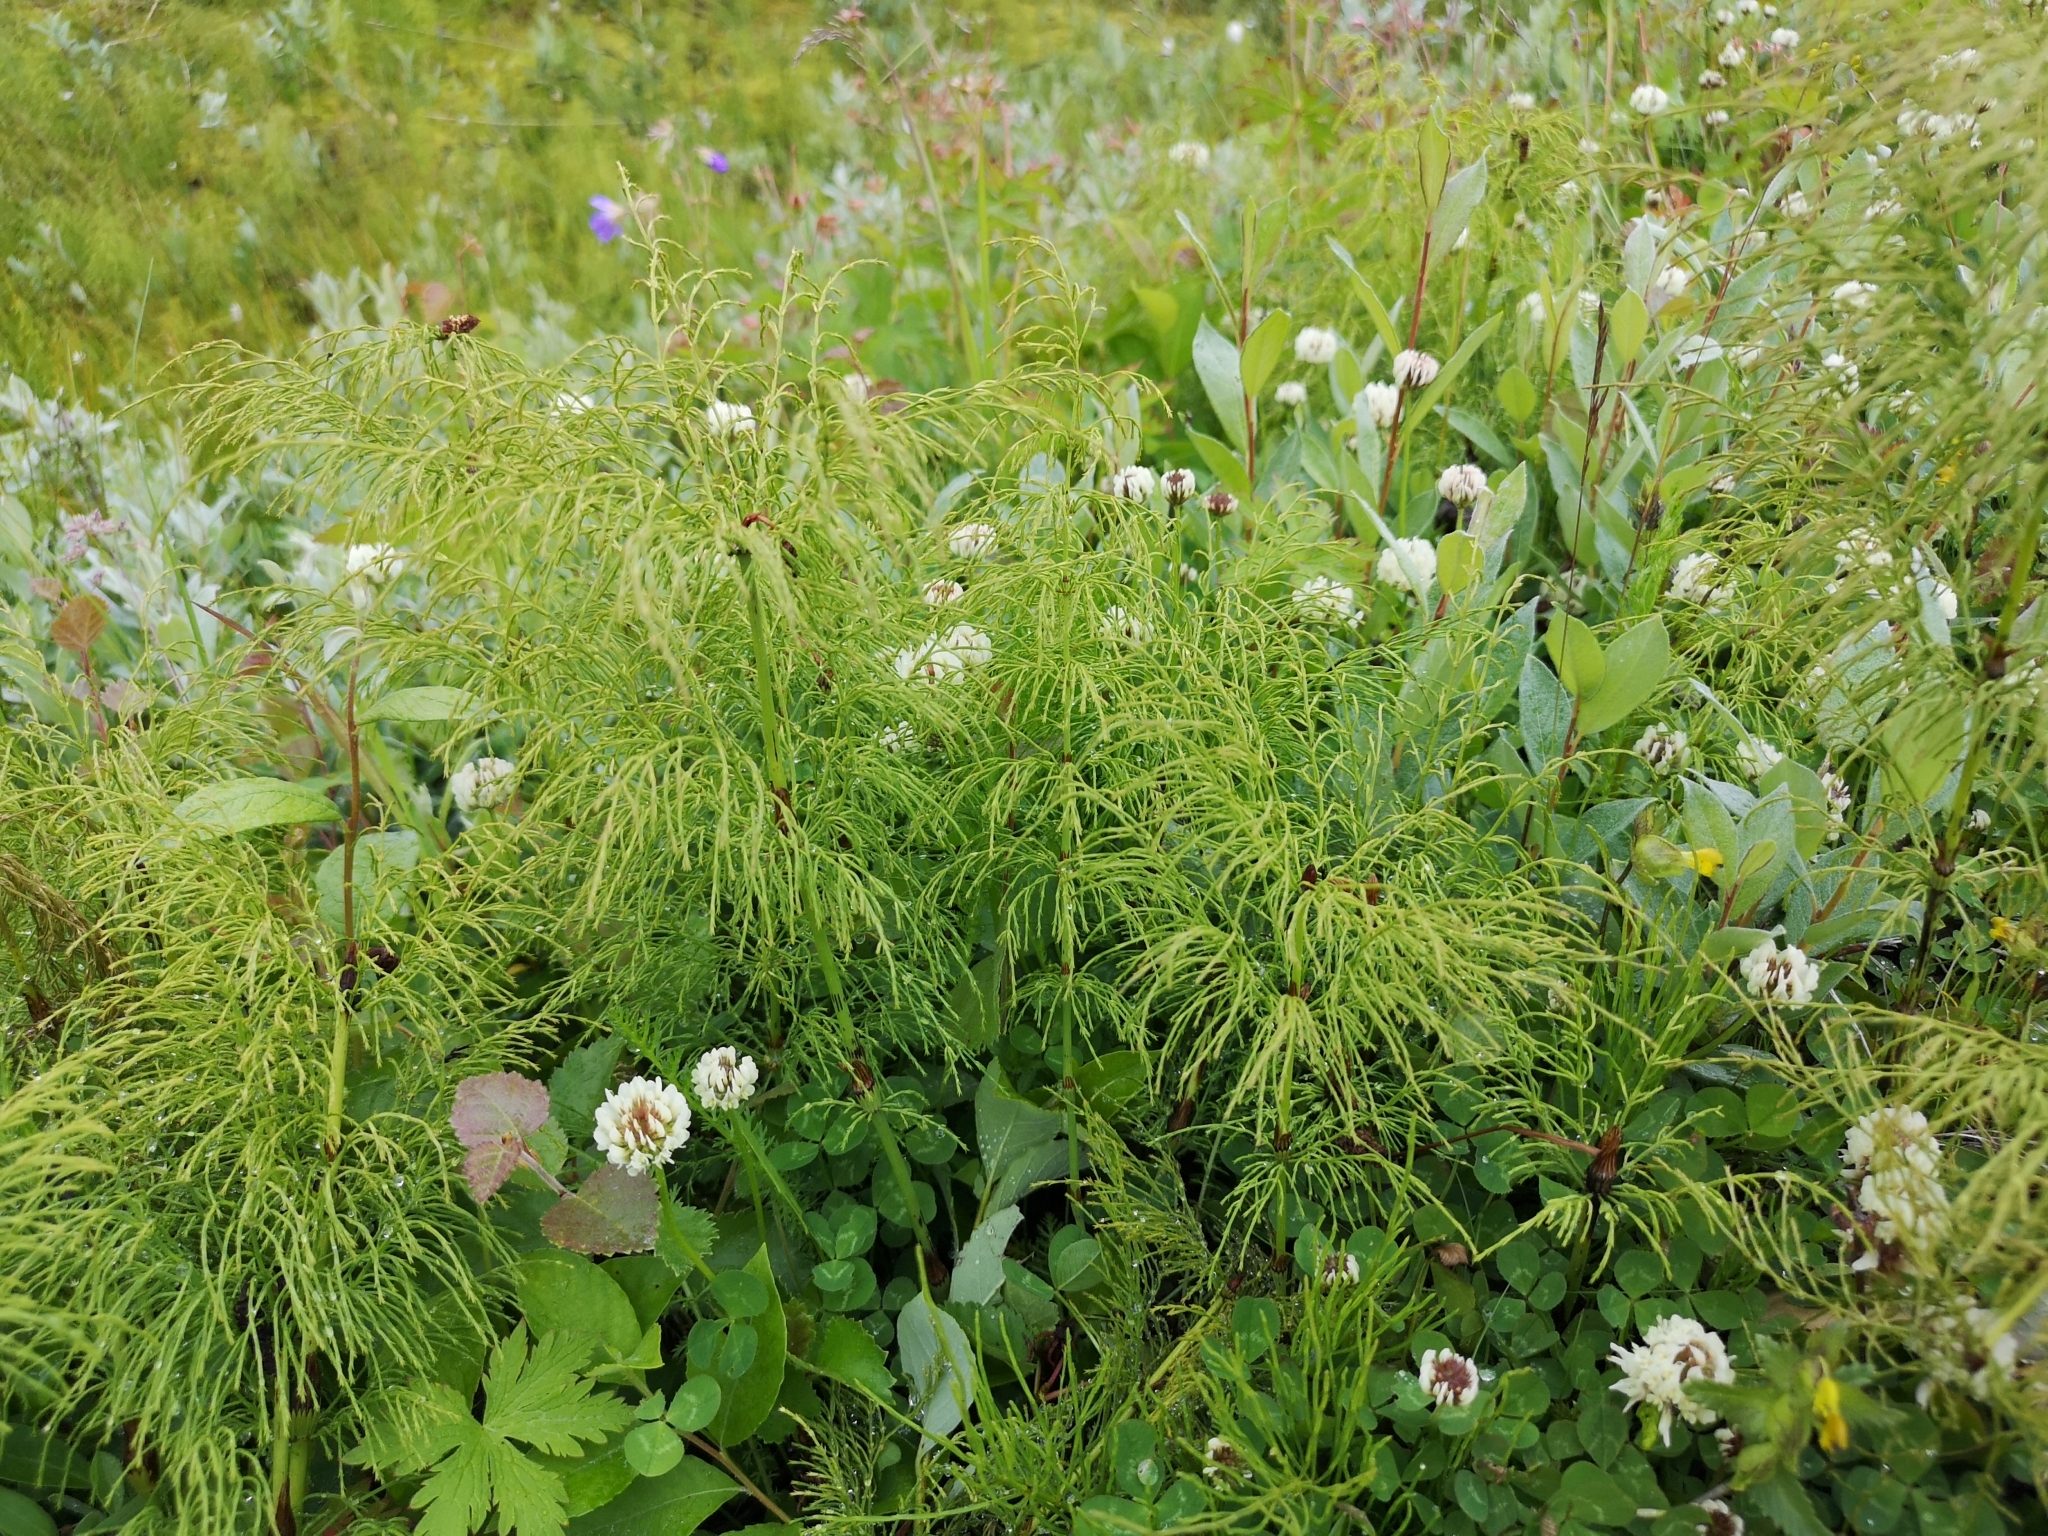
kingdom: Plantae
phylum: Tracheophyta
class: Polypodiopsida
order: Equisetales
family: Equisetaceae
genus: Equisetum
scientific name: Equisetum sylvaticum
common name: Wood horsetail
